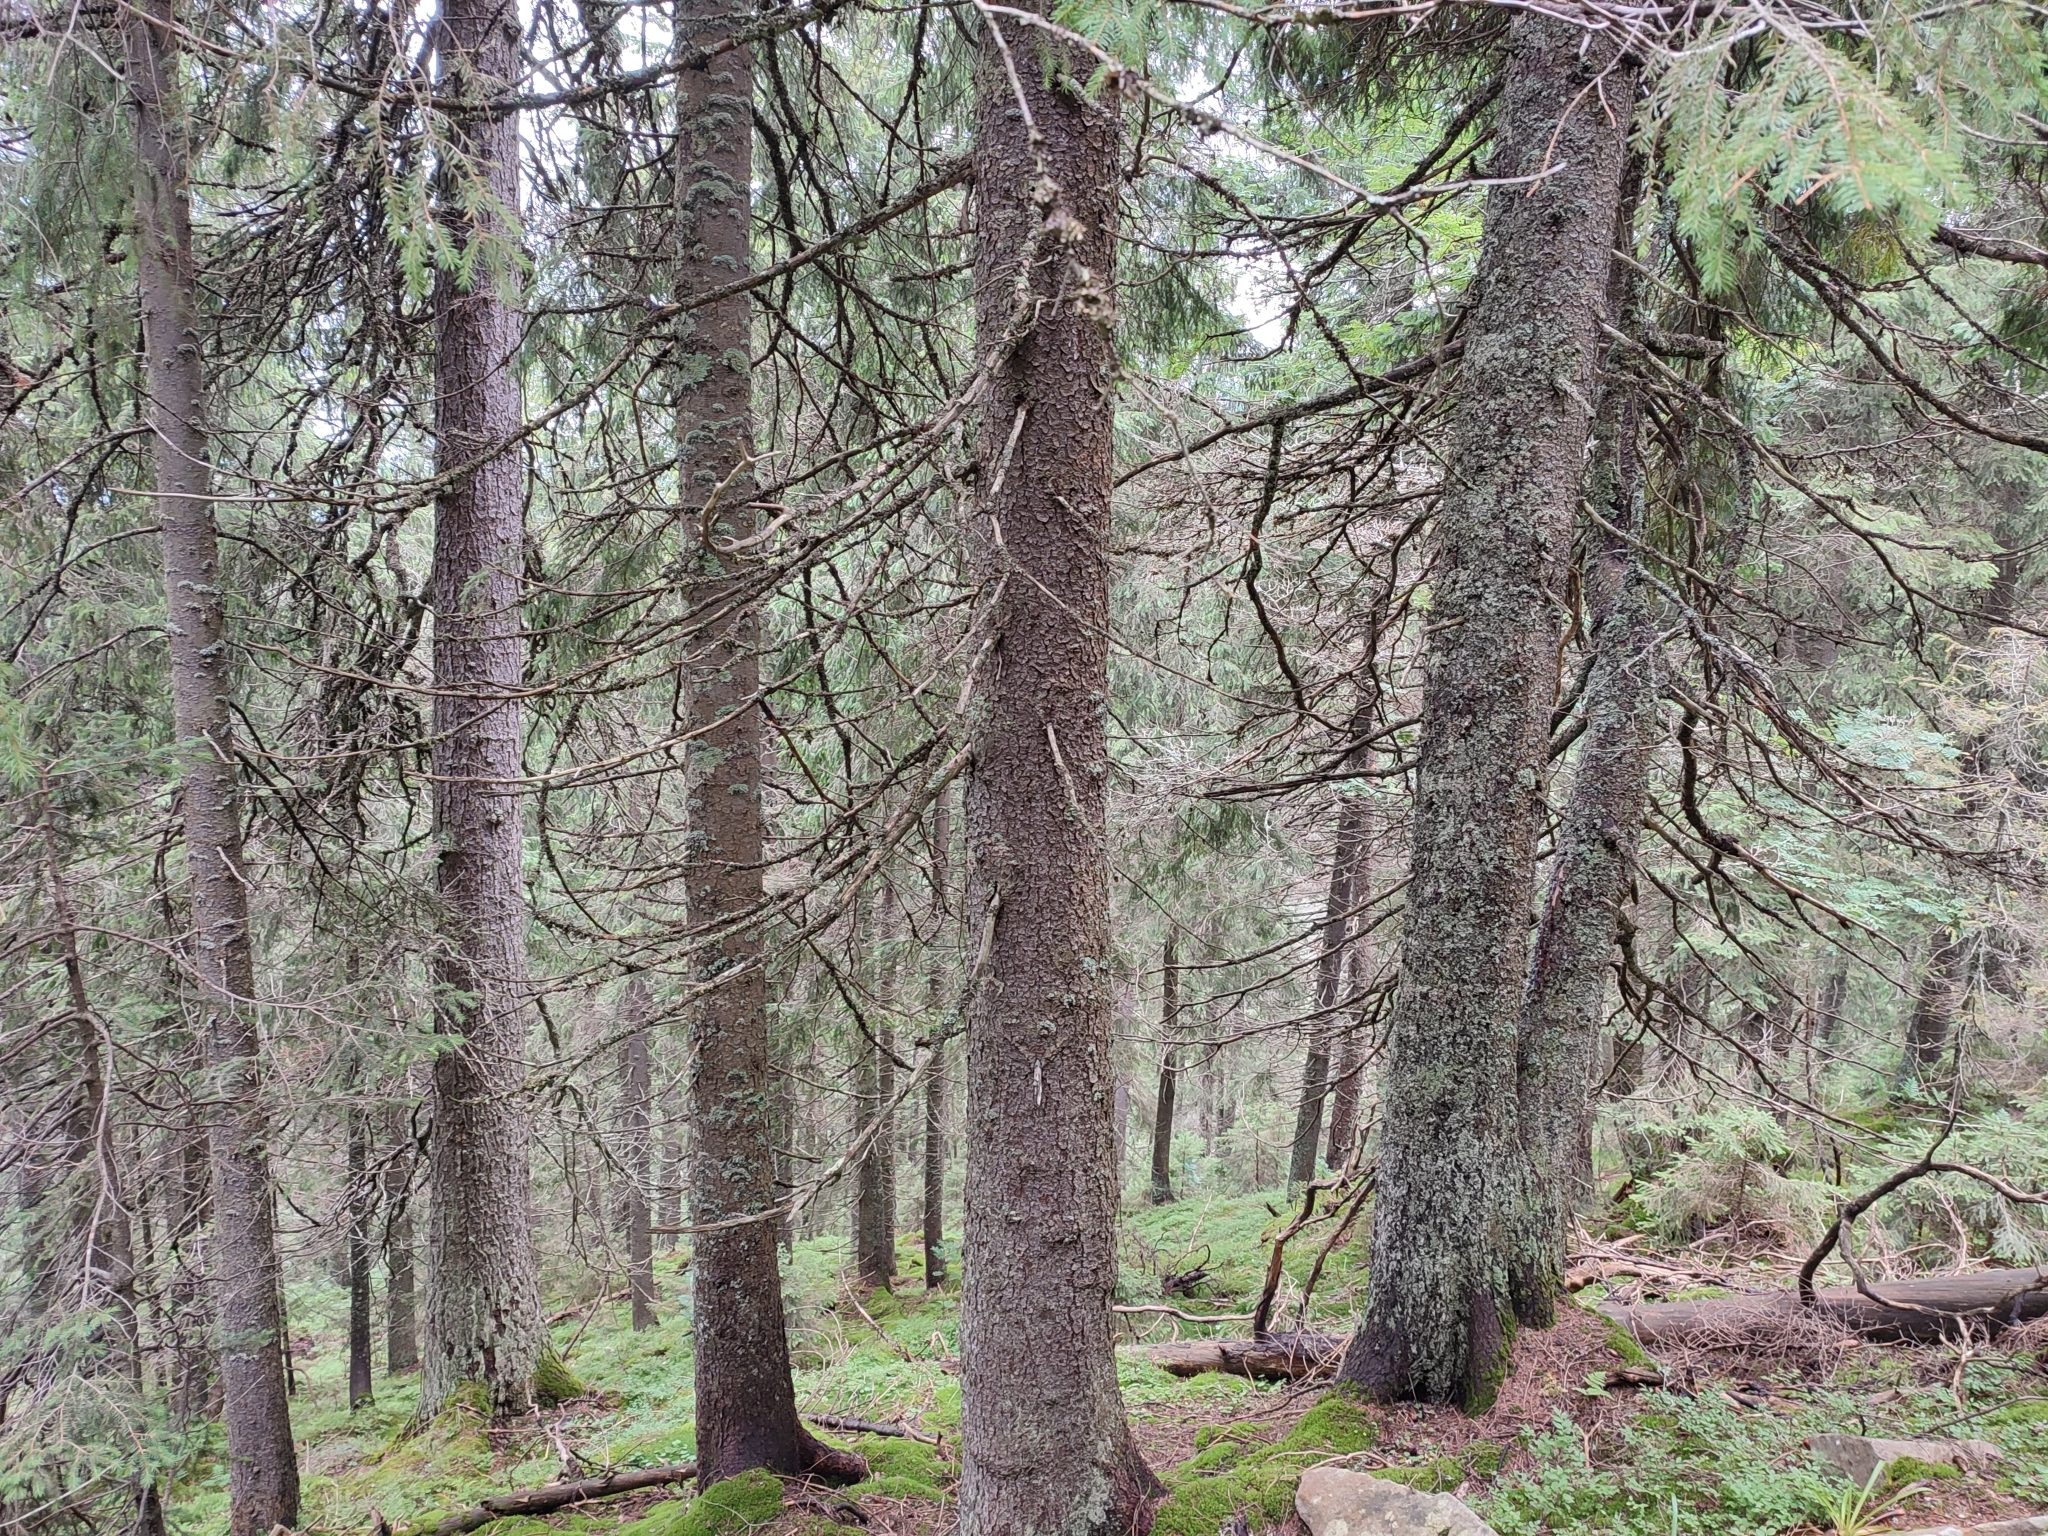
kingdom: Plantae
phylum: Tracheophyta
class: Pinopsida
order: Pinales
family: Pinaceae
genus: Picea
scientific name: Picea abies
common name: Norway spruce
